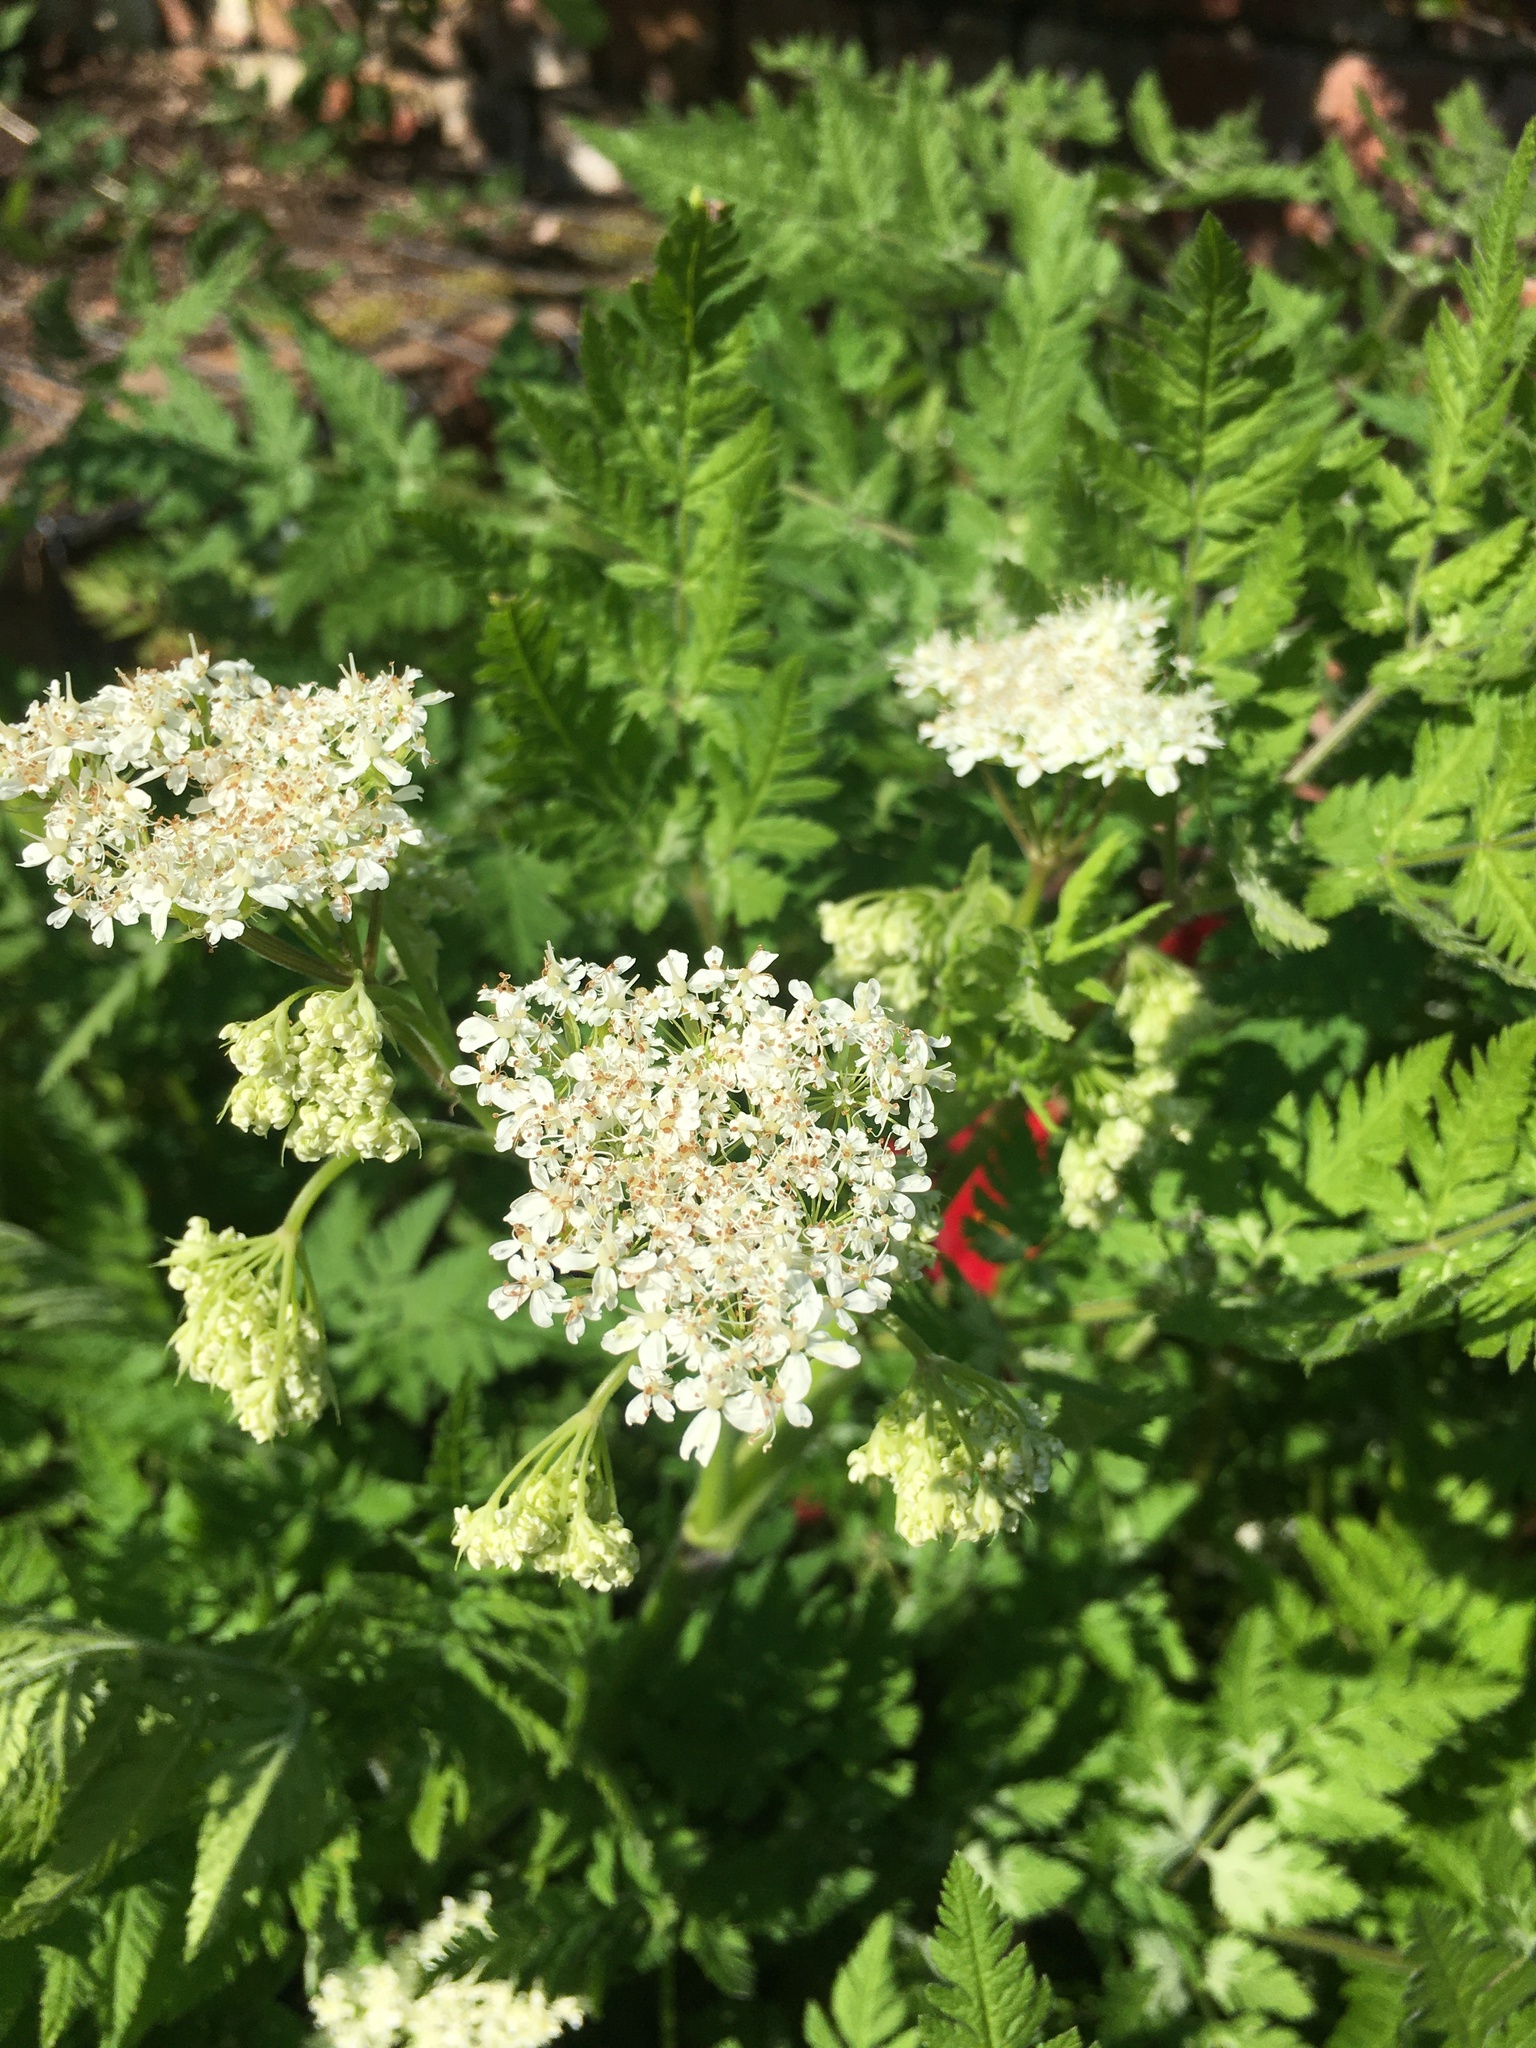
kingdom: Plantae
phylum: Tracheophyta
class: Magnoliopsida
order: Apiales
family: Apiaceae
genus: Myrrhis
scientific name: Myrrhis odorata
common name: Sweet cicely
